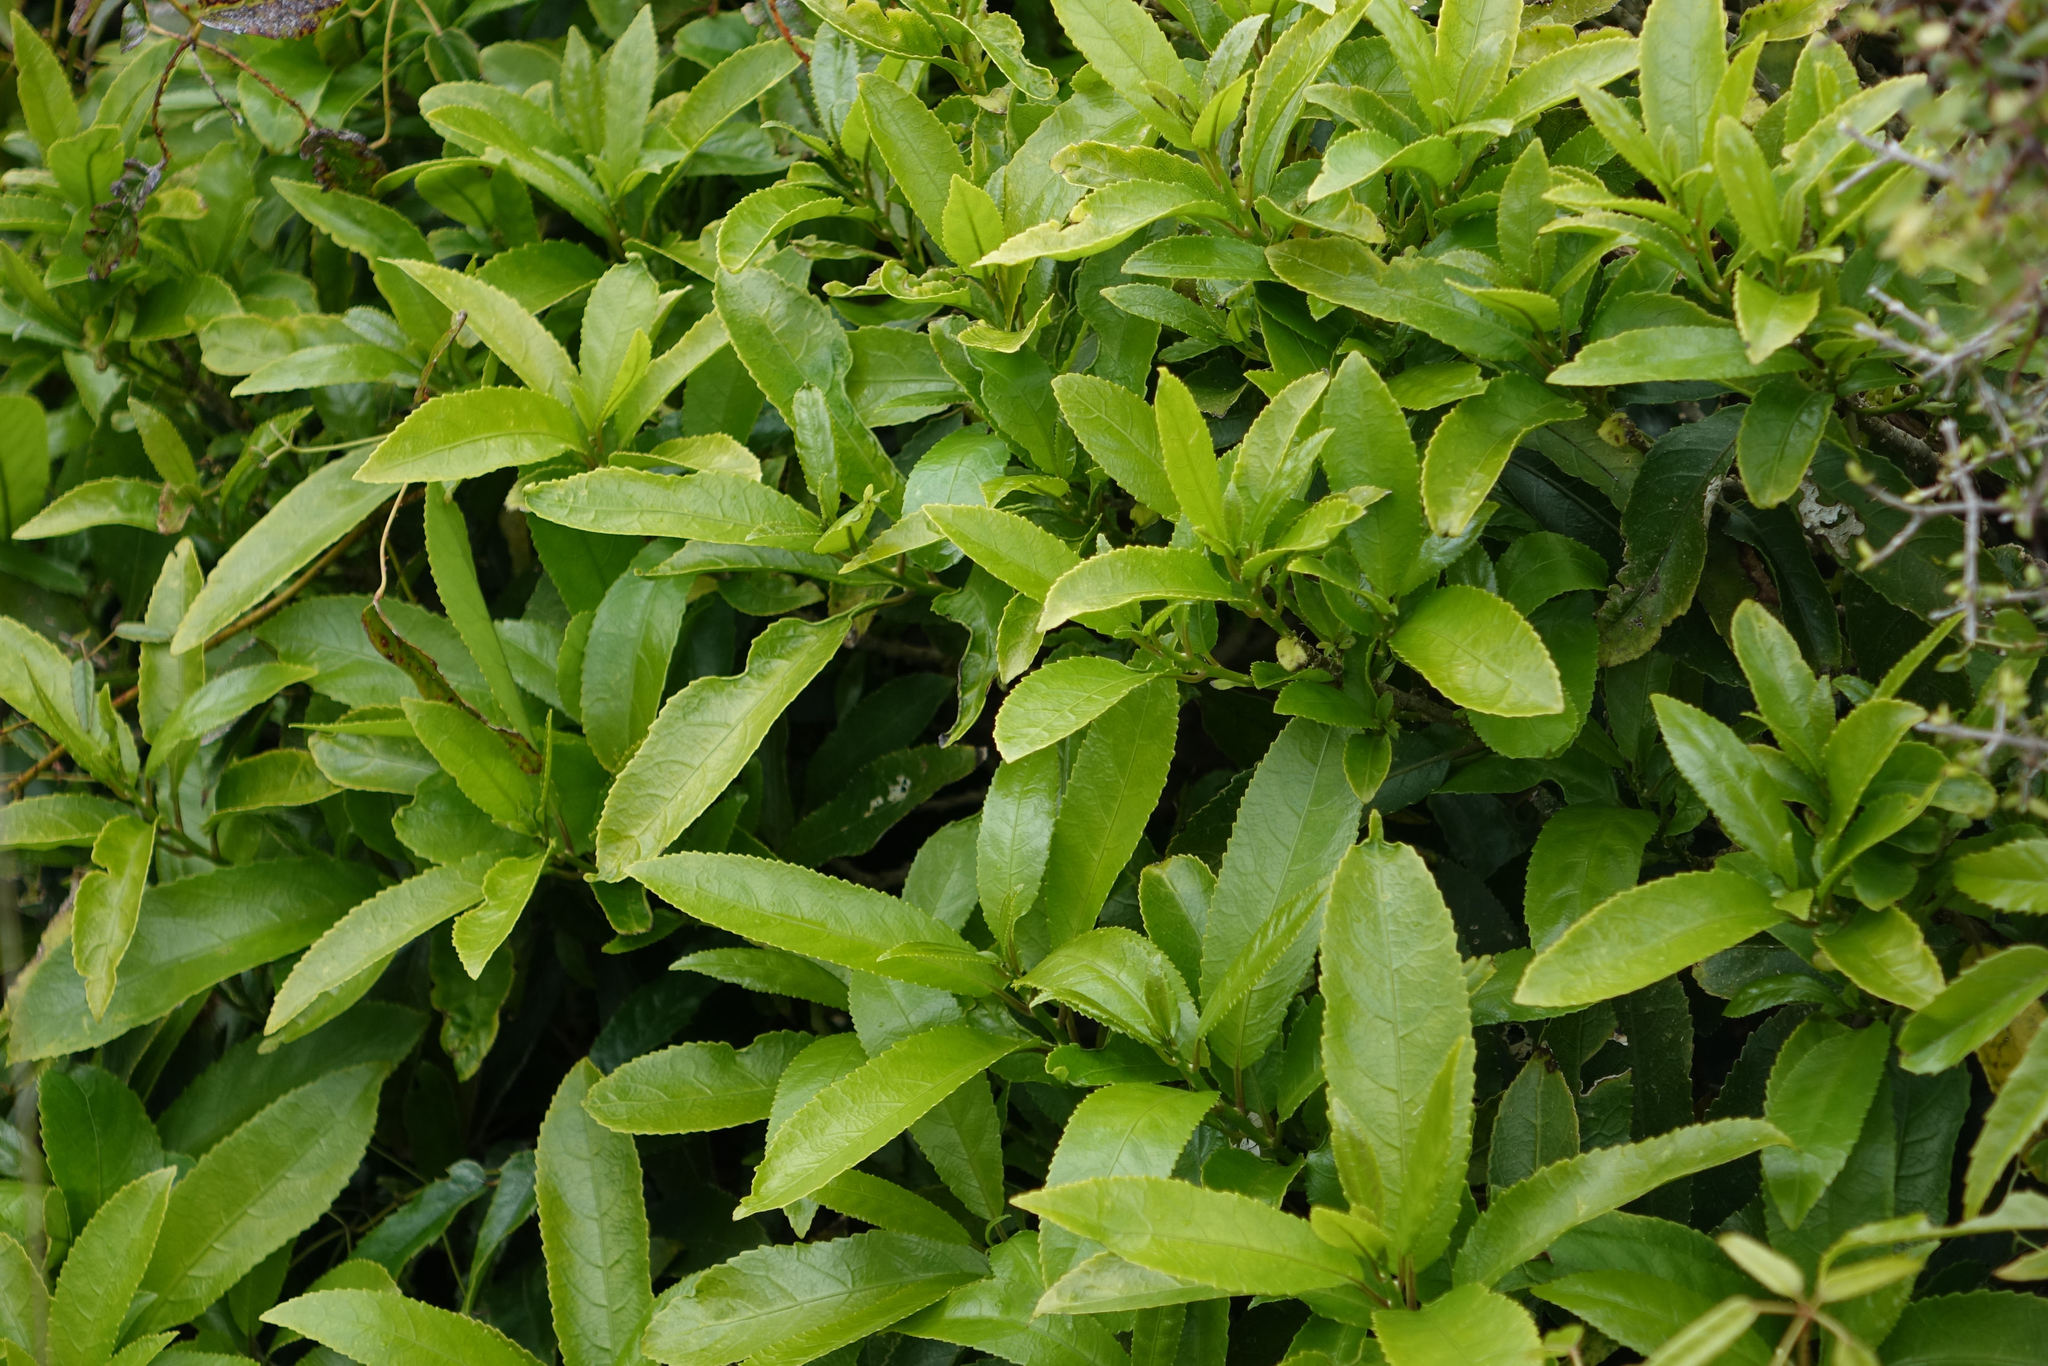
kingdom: Plantae
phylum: Tracheophyta
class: Magnoliopsida
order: Malpighiales
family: Violaceae
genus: Melicytus
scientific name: Melicytus ramiflorus
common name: Mahoe
